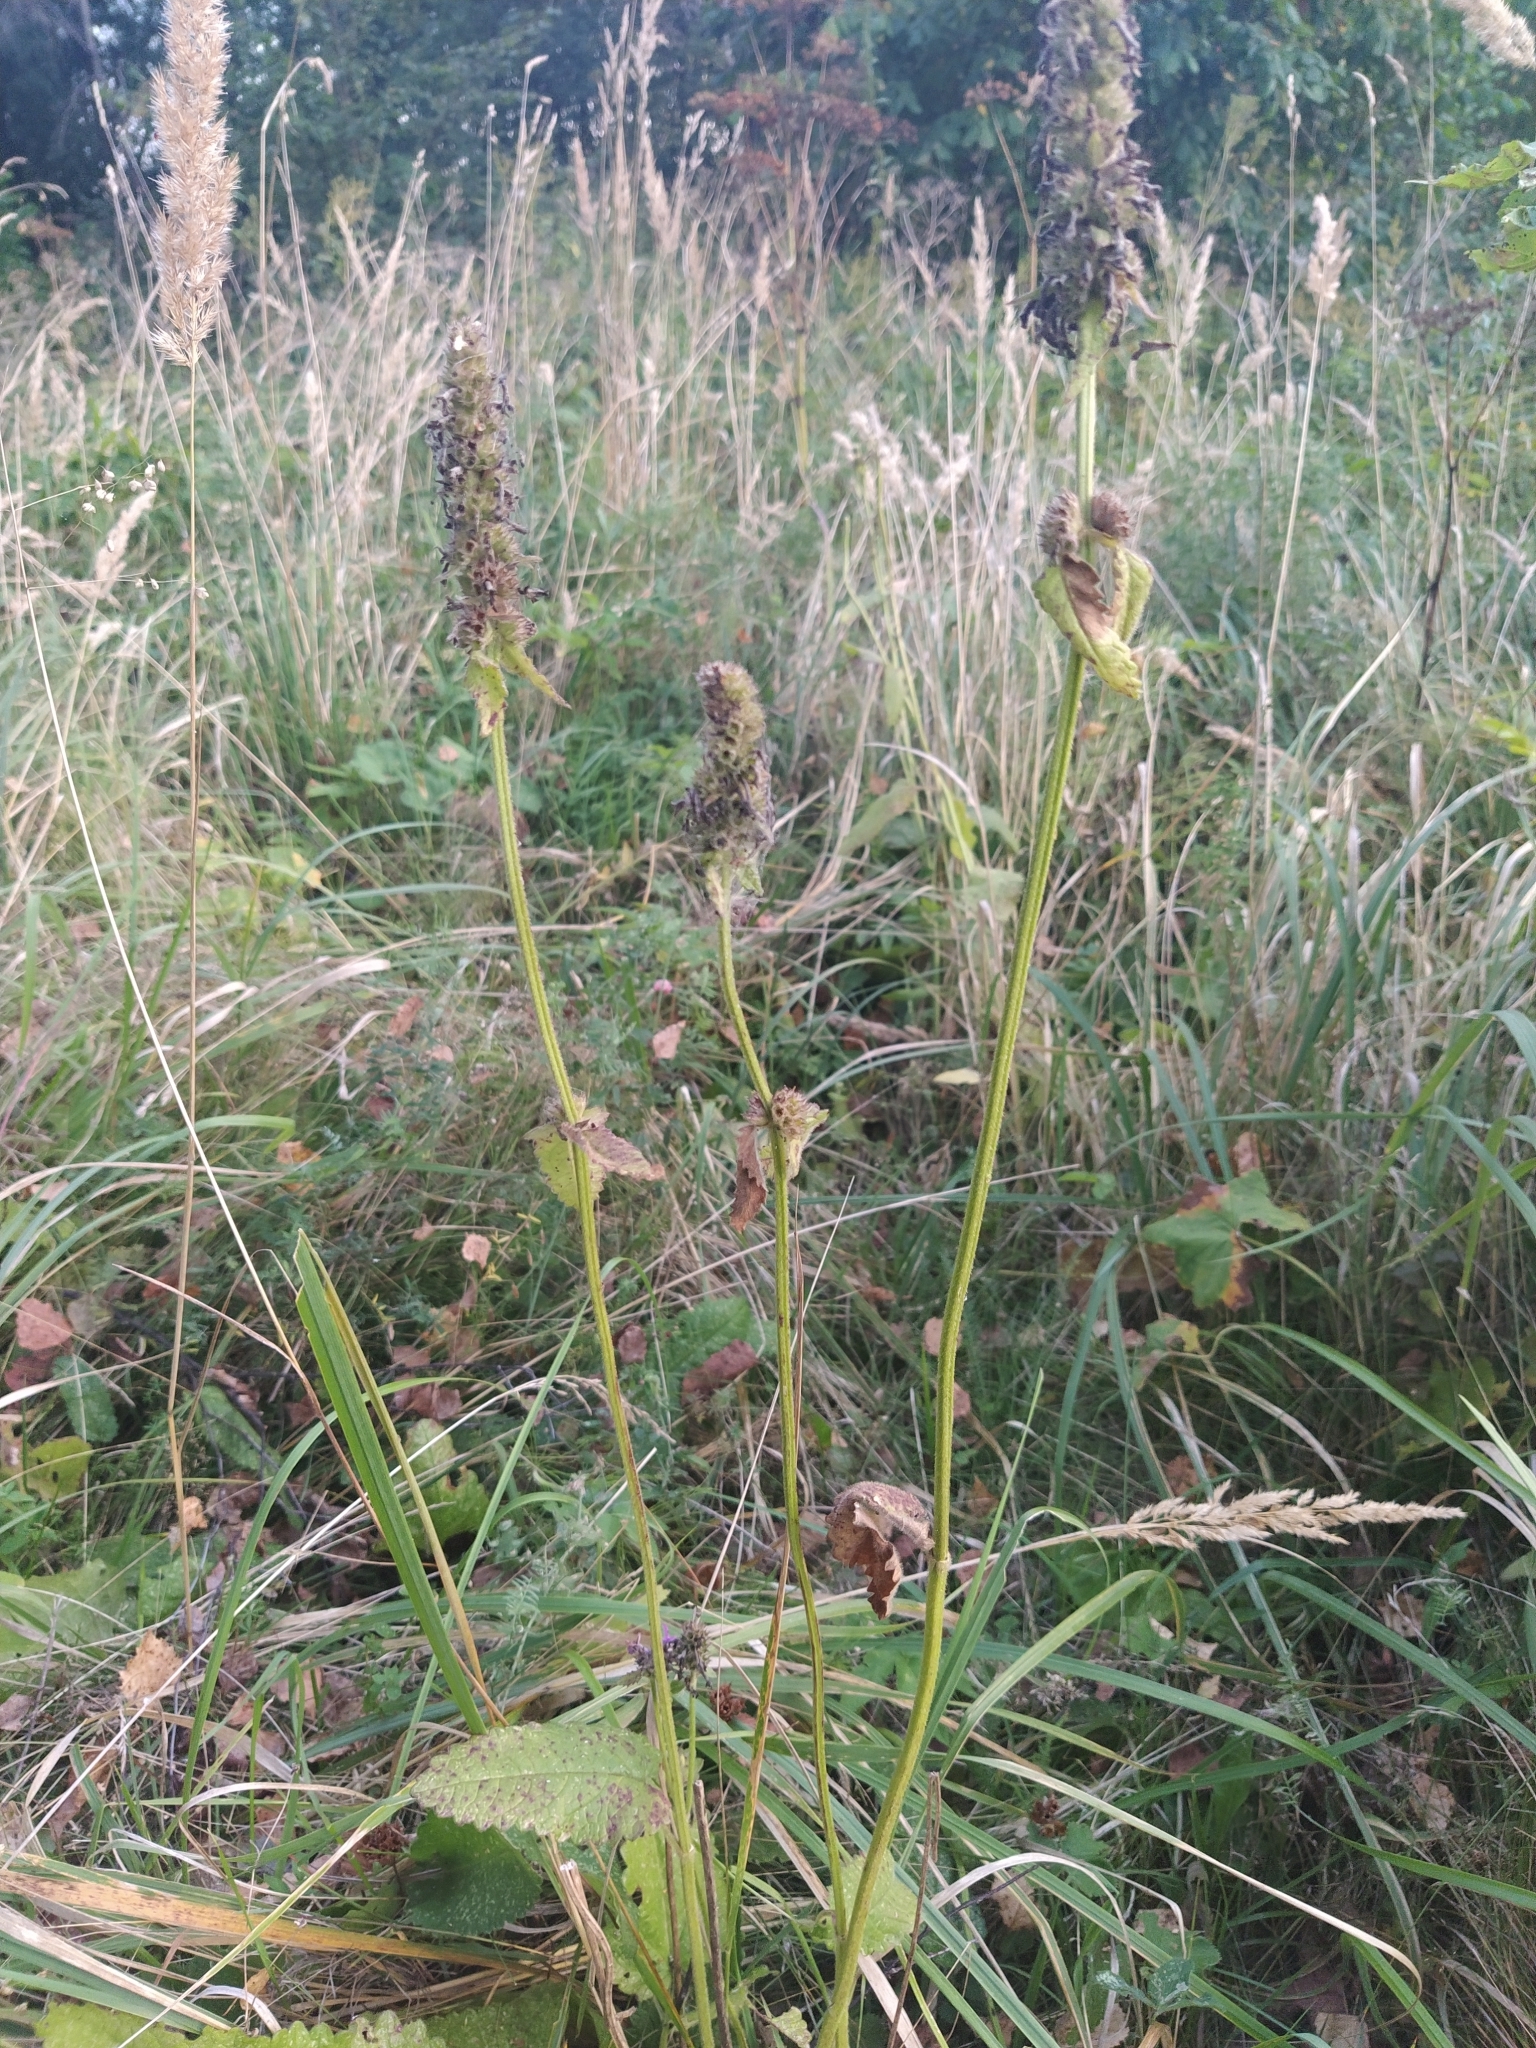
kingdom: Plantae
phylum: Tracheophyta
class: Magnoliopsida
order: Lamiales
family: Lamiaceae
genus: Betonica
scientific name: Betonica officinalis
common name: Bishop's-wort
